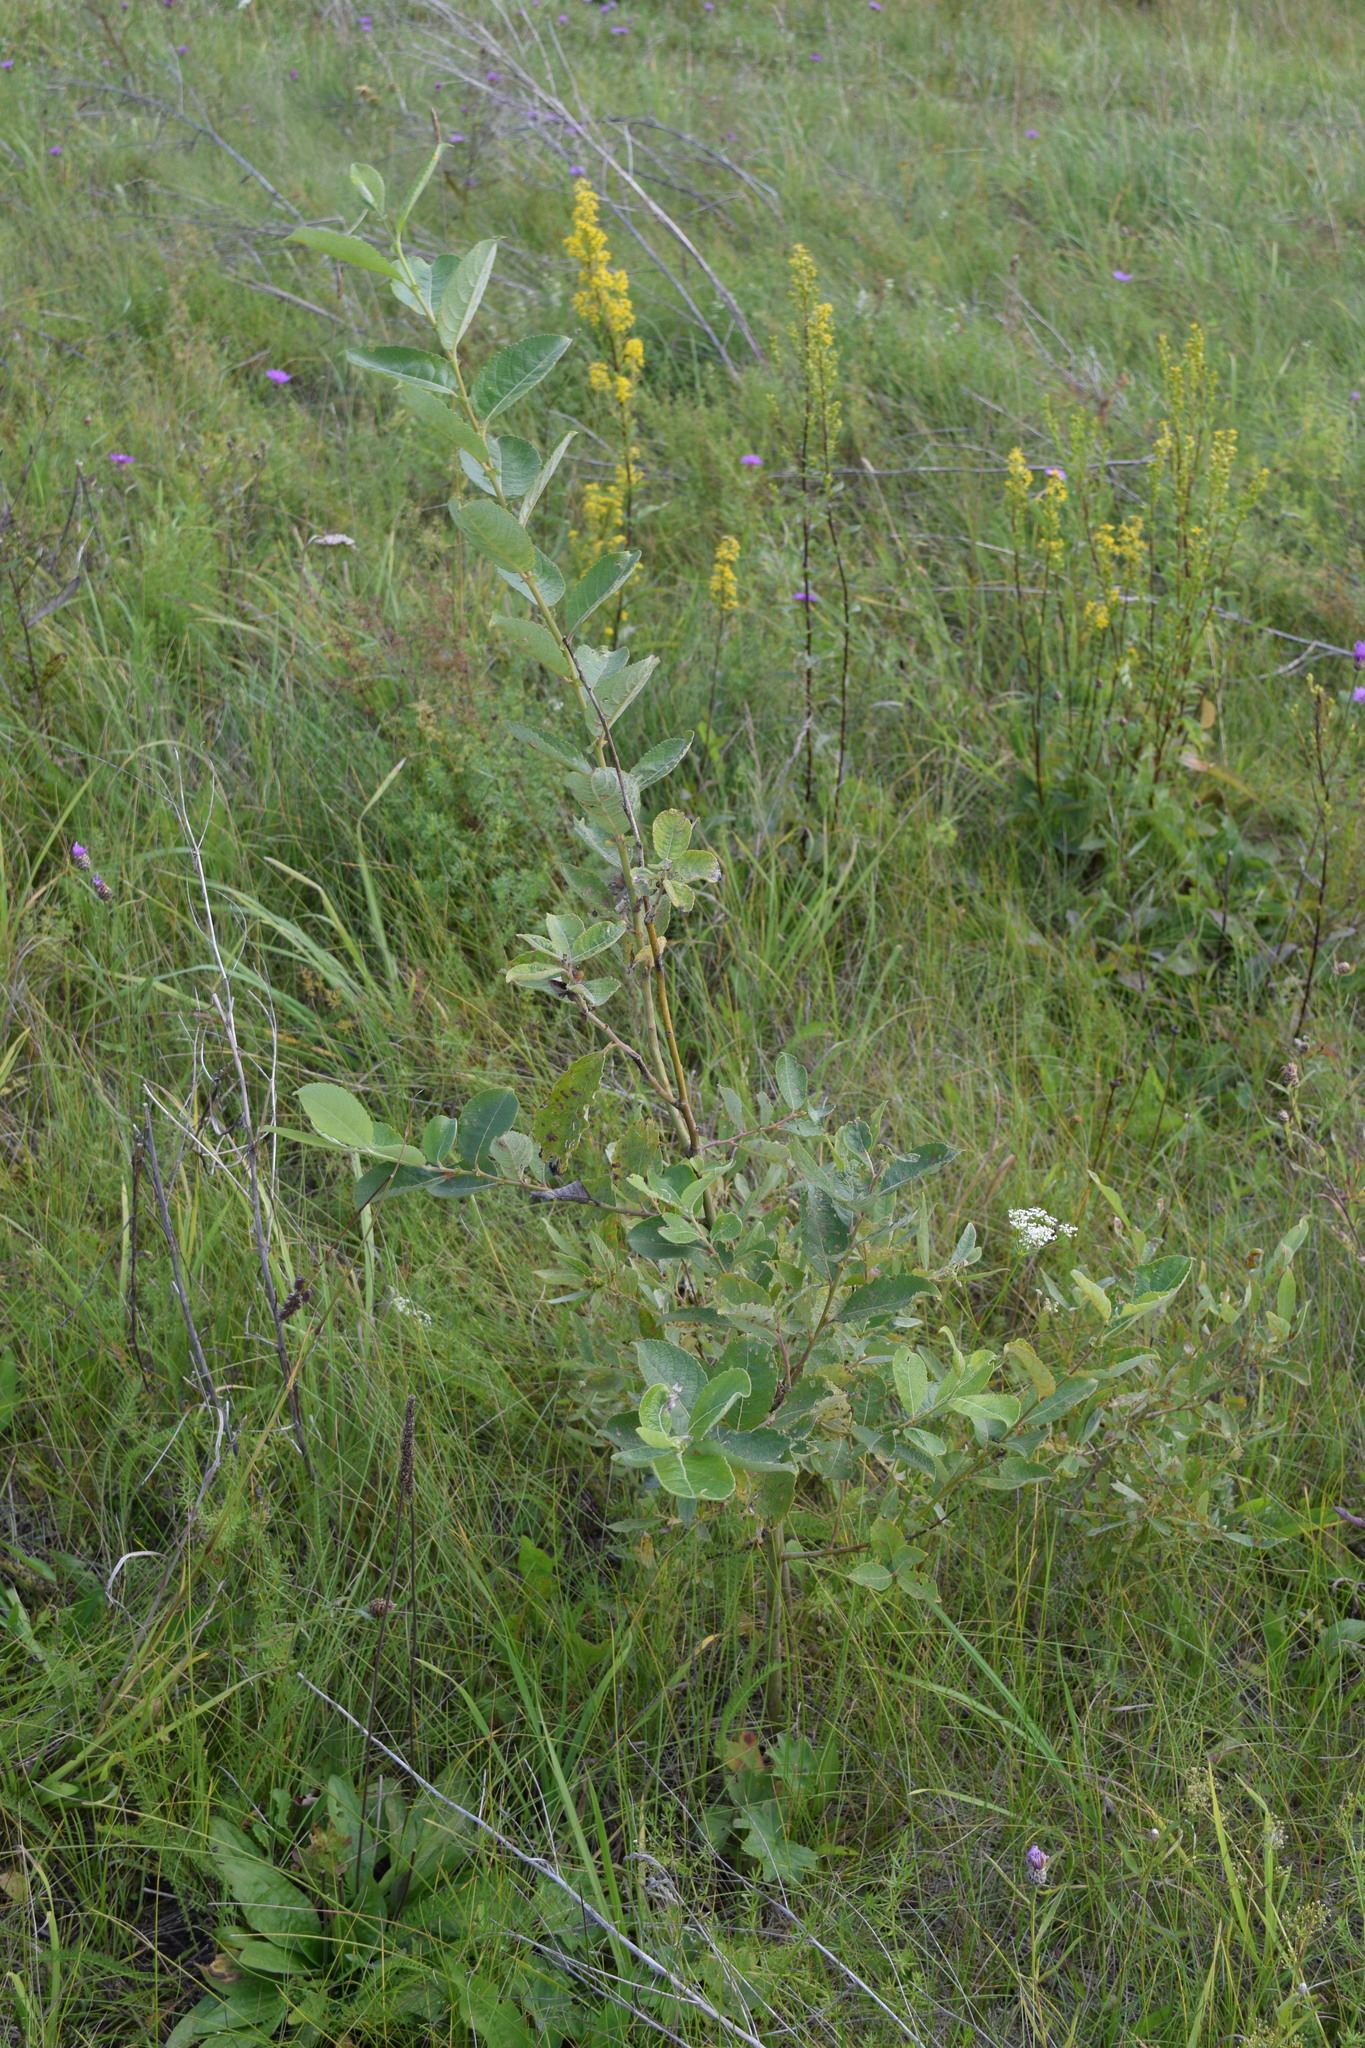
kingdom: Plantae
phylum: Tracheophyta
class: Magnoliopsida
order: Malpighiales
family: Salicaceae
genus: Salix
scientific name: Salix caprea
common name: Goat willow
